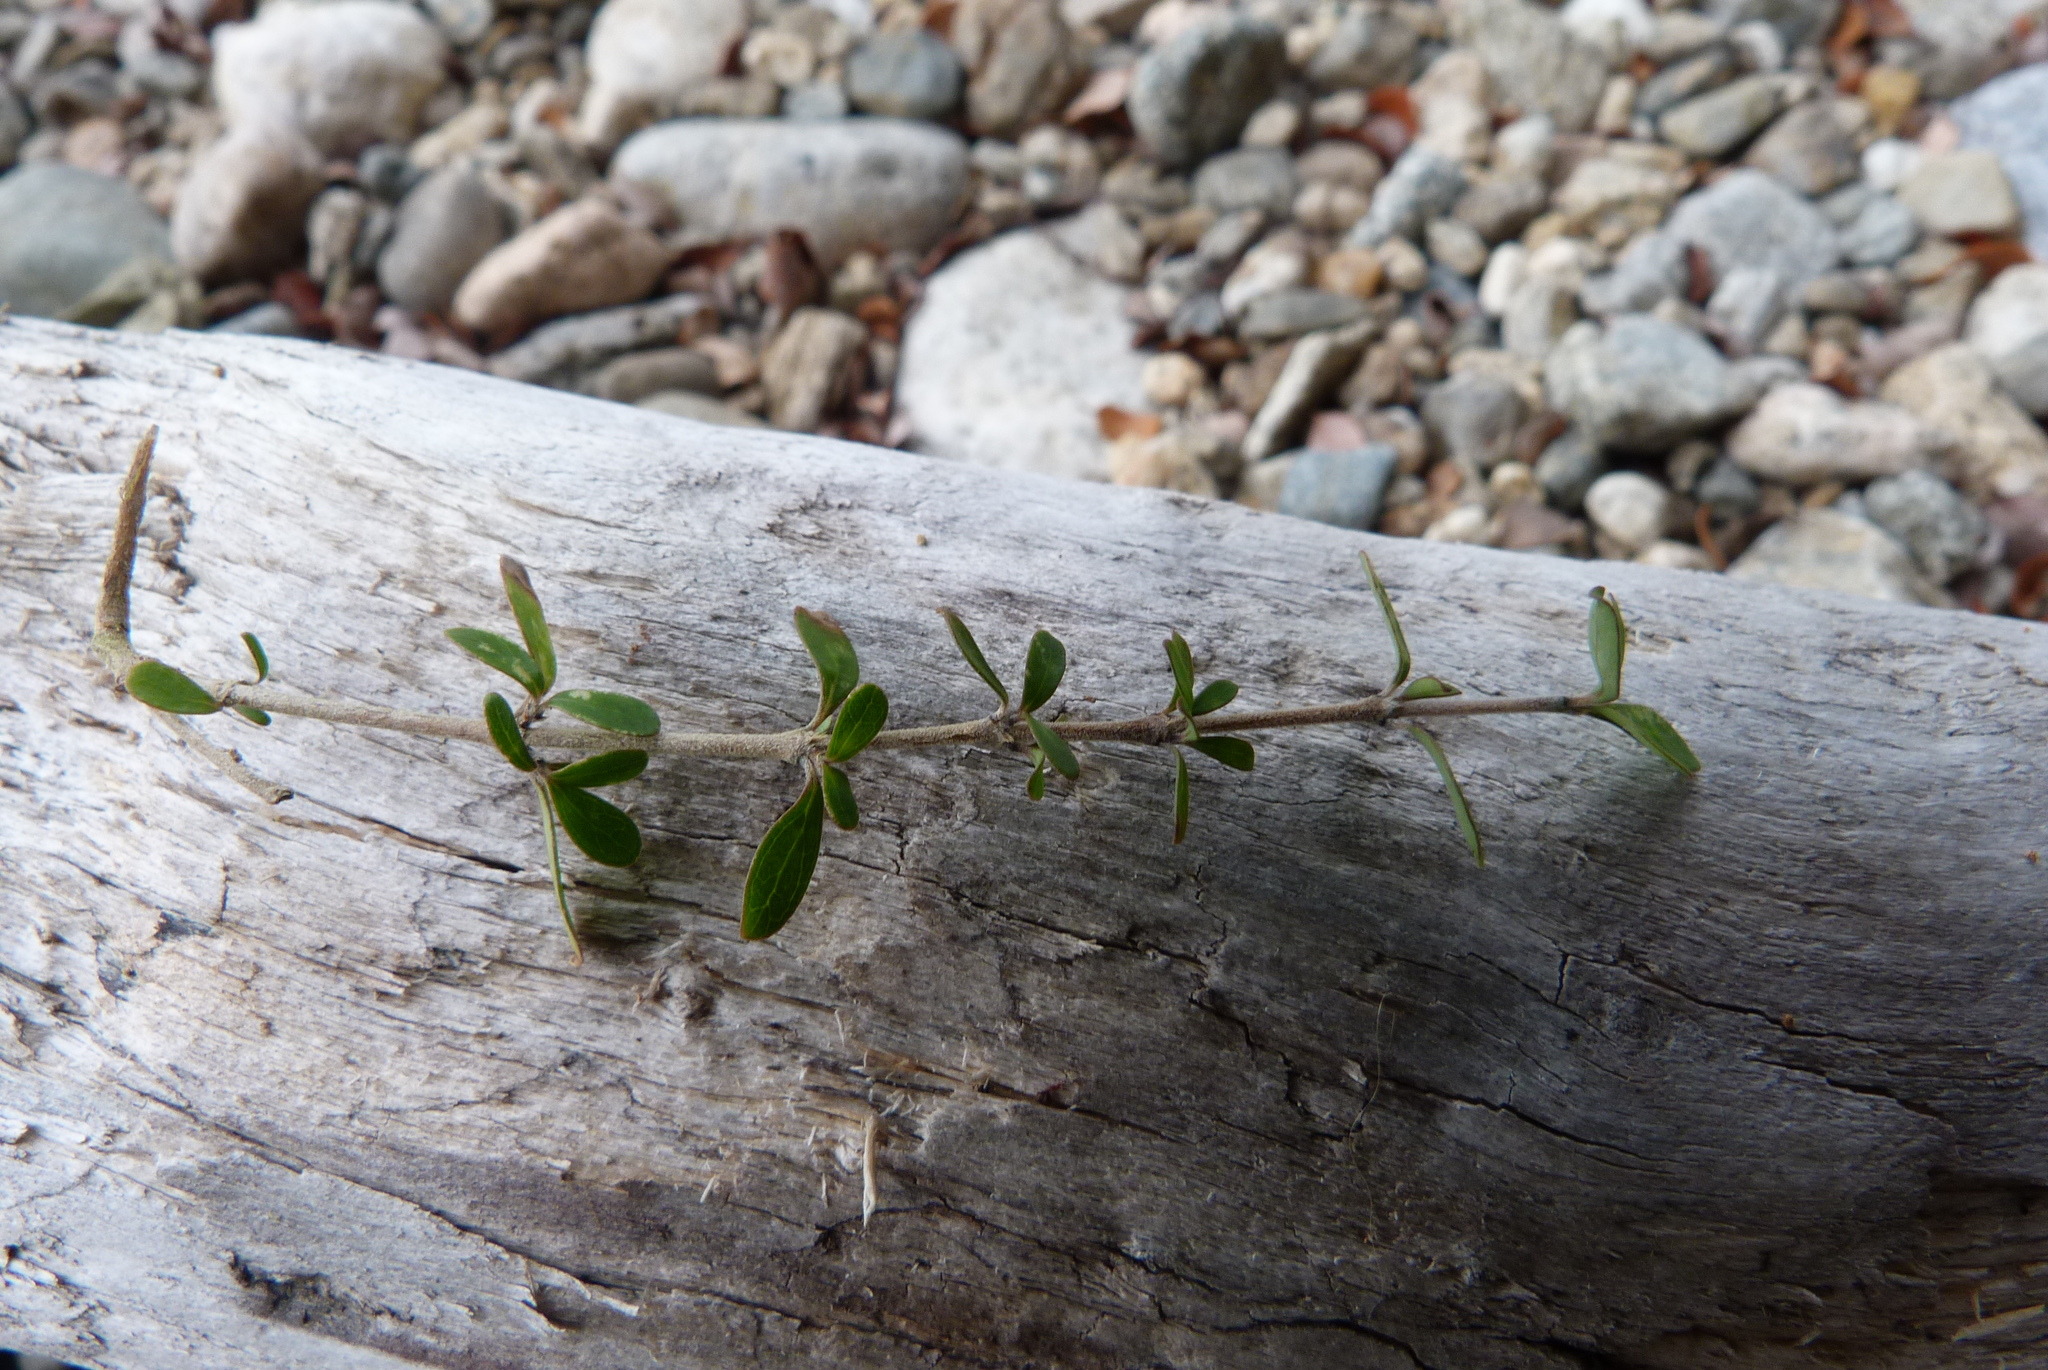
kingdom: Plantae
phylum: Tracheophyta
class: Magnoliopsida
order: Gentianales
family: Rubiaceae
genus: Coprosma
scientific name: Coprosma dumosa
